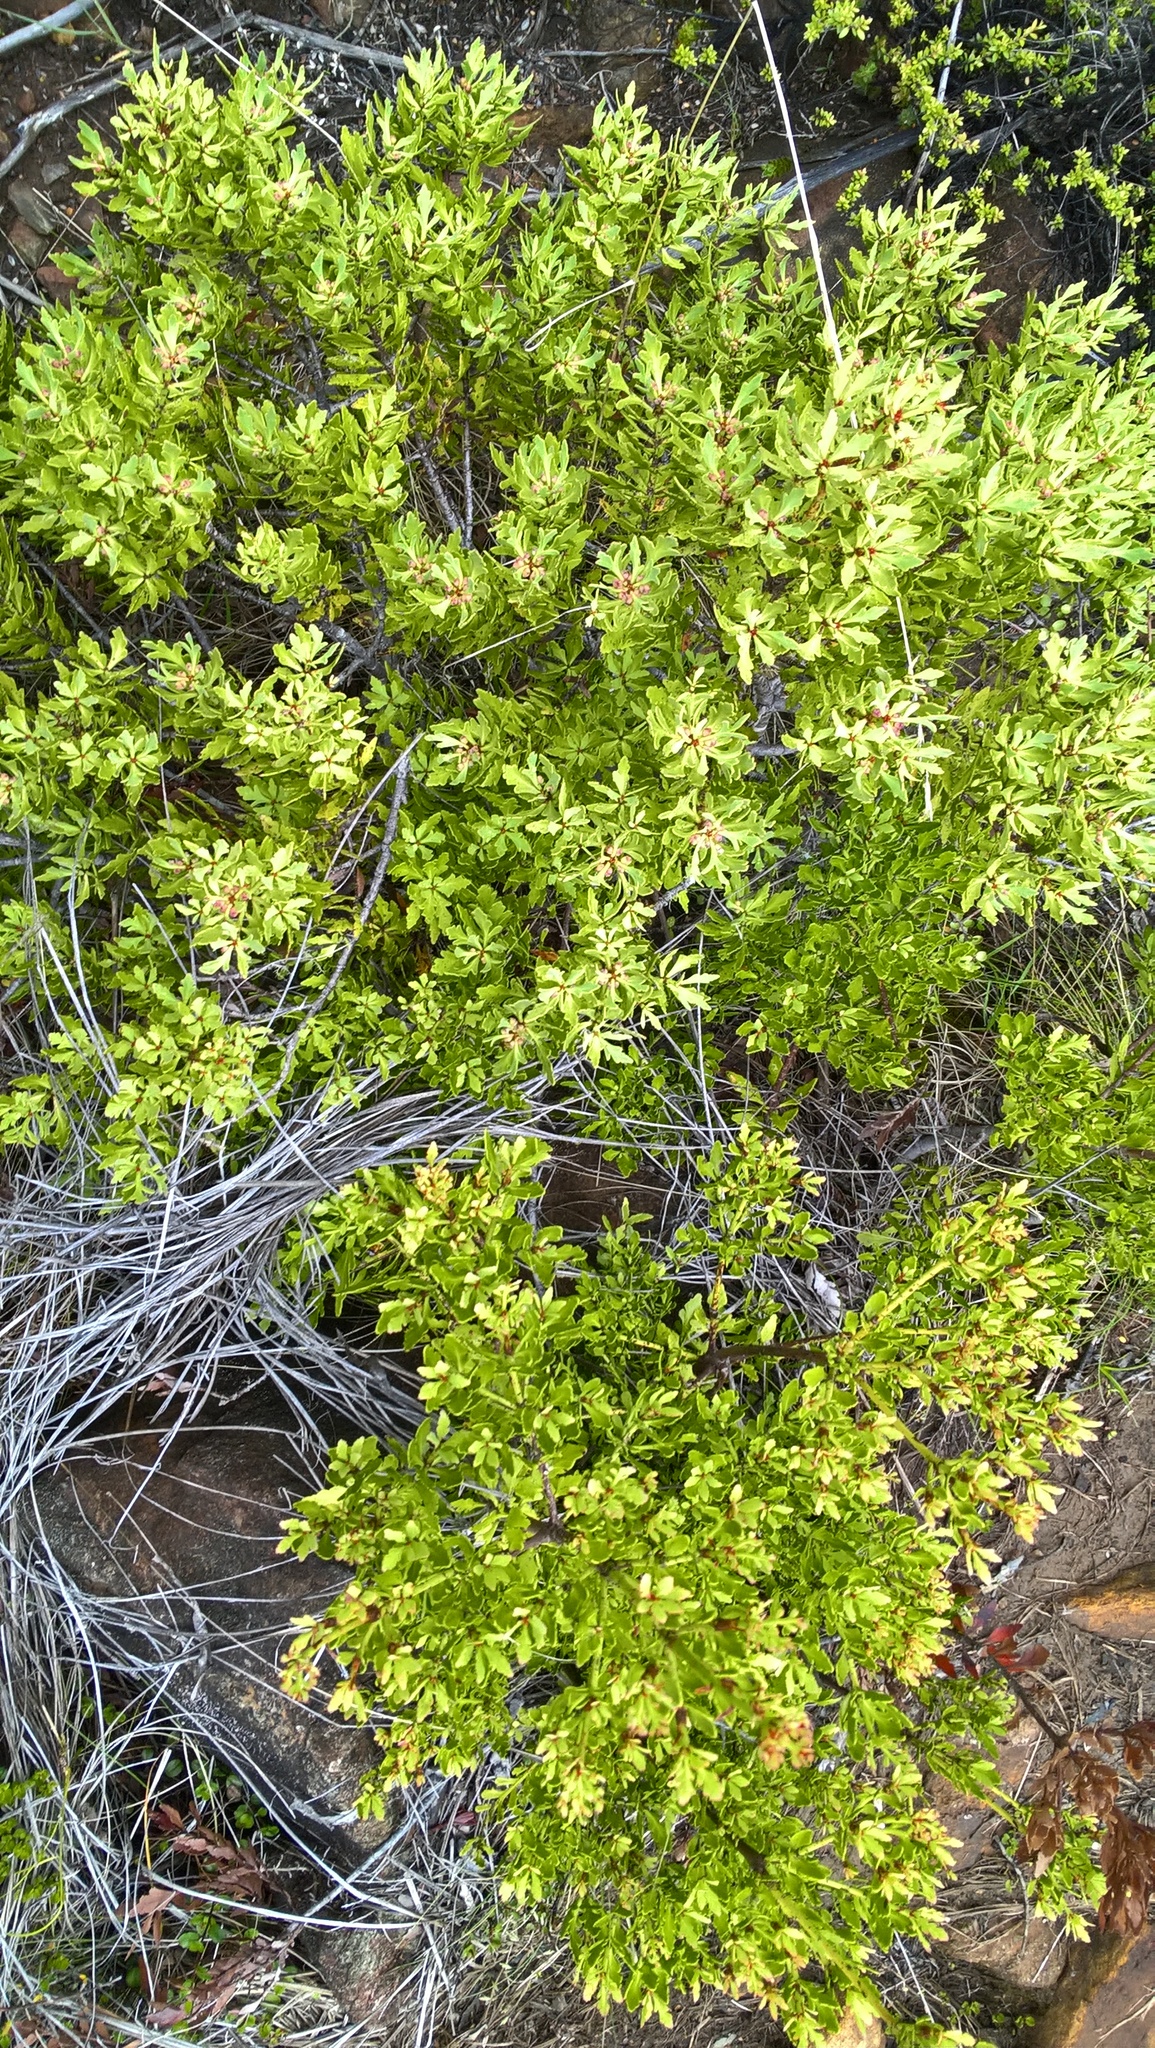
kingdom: Plantae
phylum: Tracheophyta
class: Pinopsida
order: Pinales
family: Phyllocladaceae
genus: Phyllocladus
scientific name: Phyllocladus trichomanoides
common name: Celery pine
